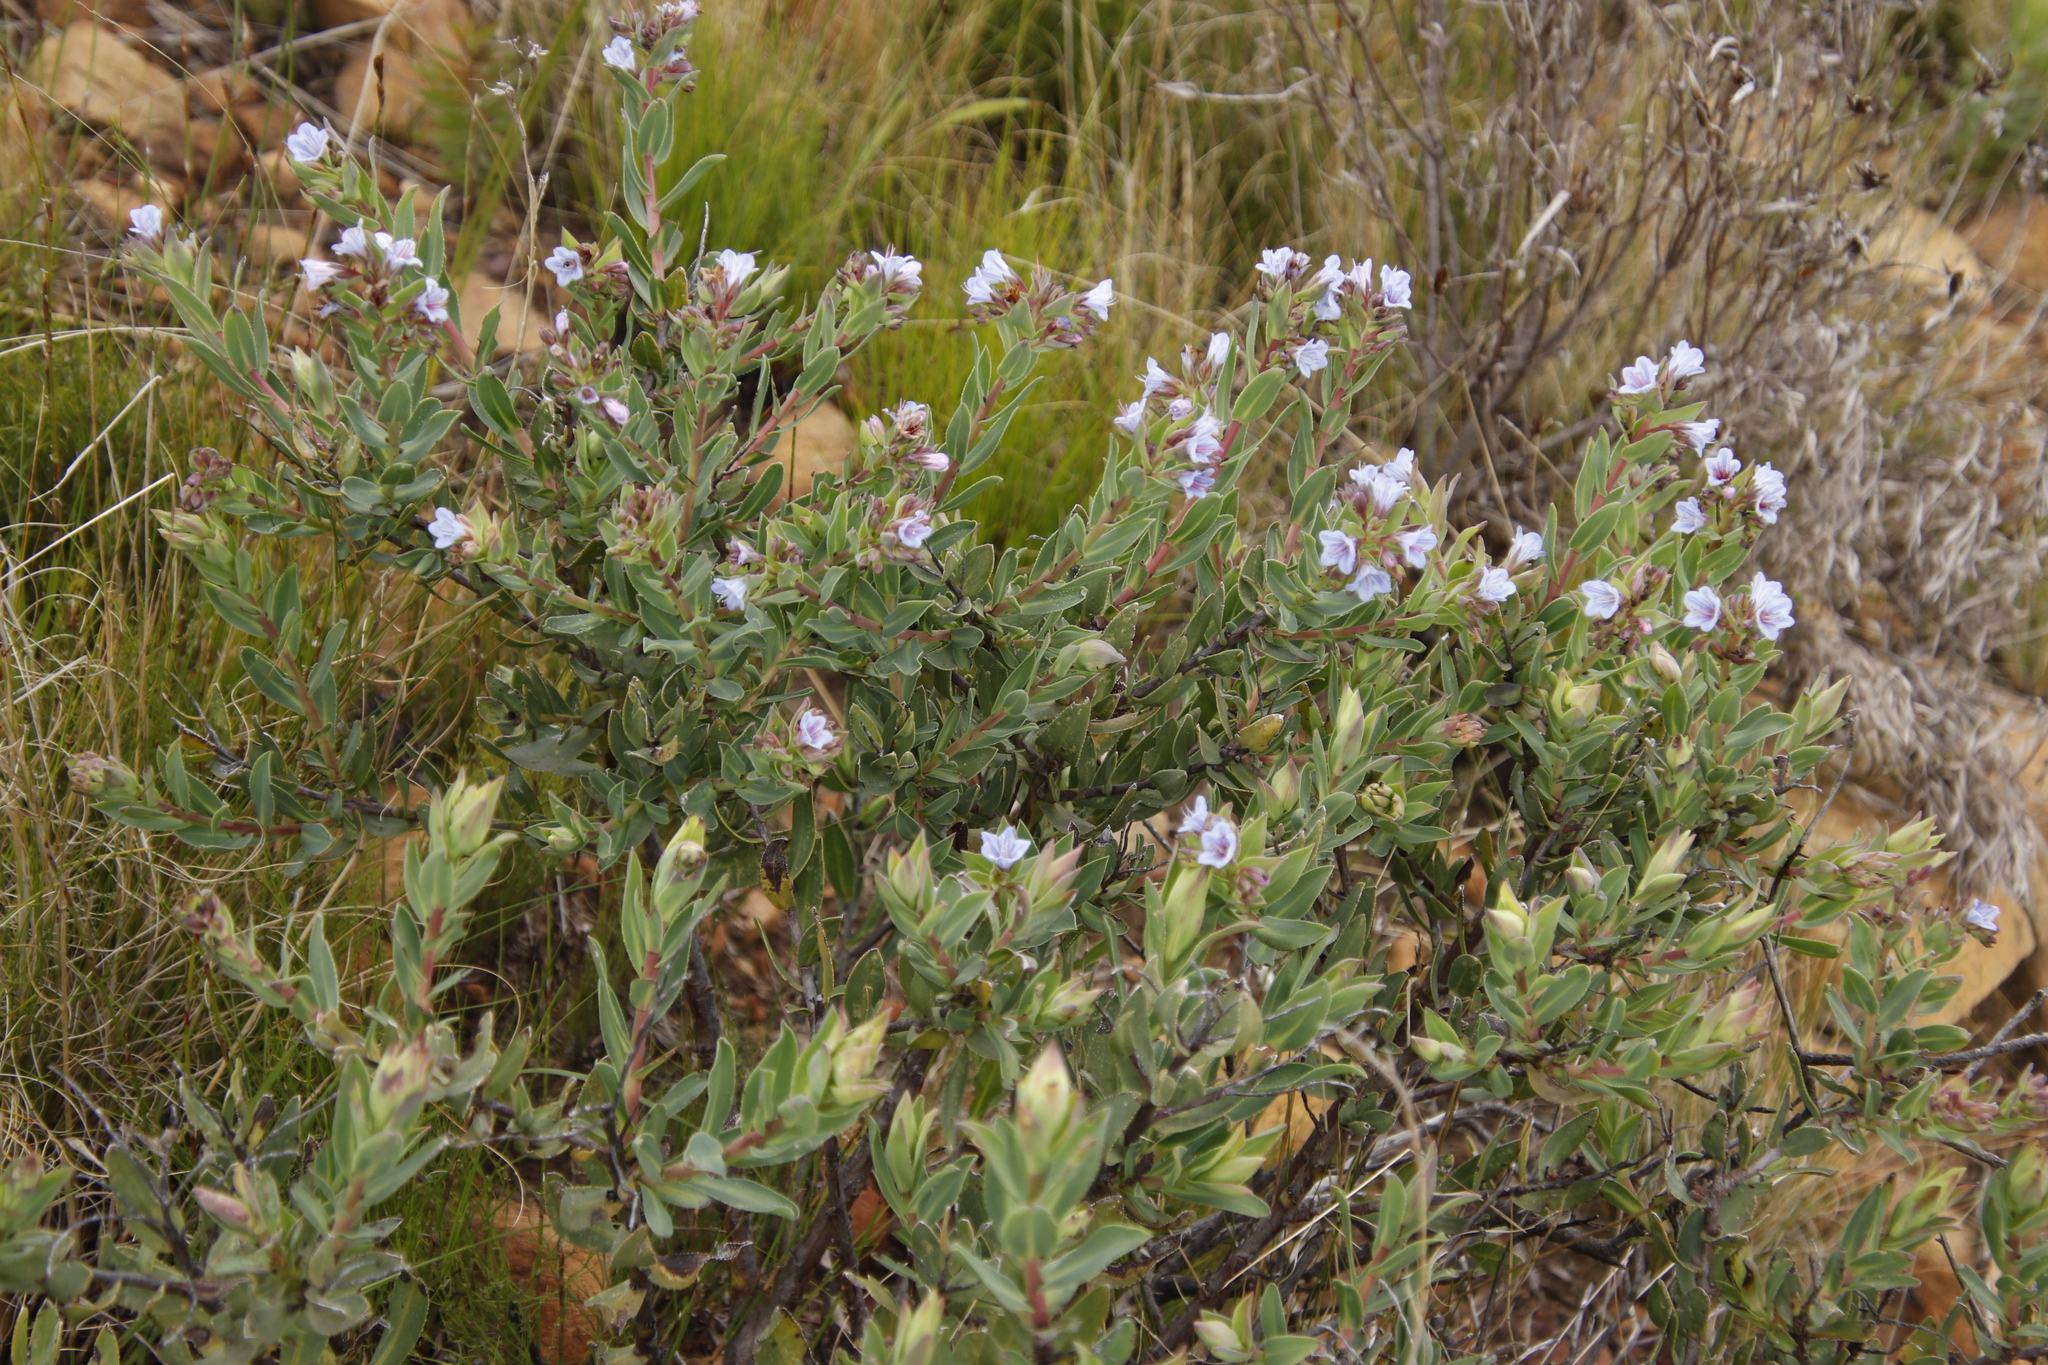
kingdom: Plantae
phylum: Tracheophyta
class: Magnoliopsida
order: Boraginales
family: Boraginaceae
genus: Lobostemon
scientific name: Lobostemon glaucophyllus
